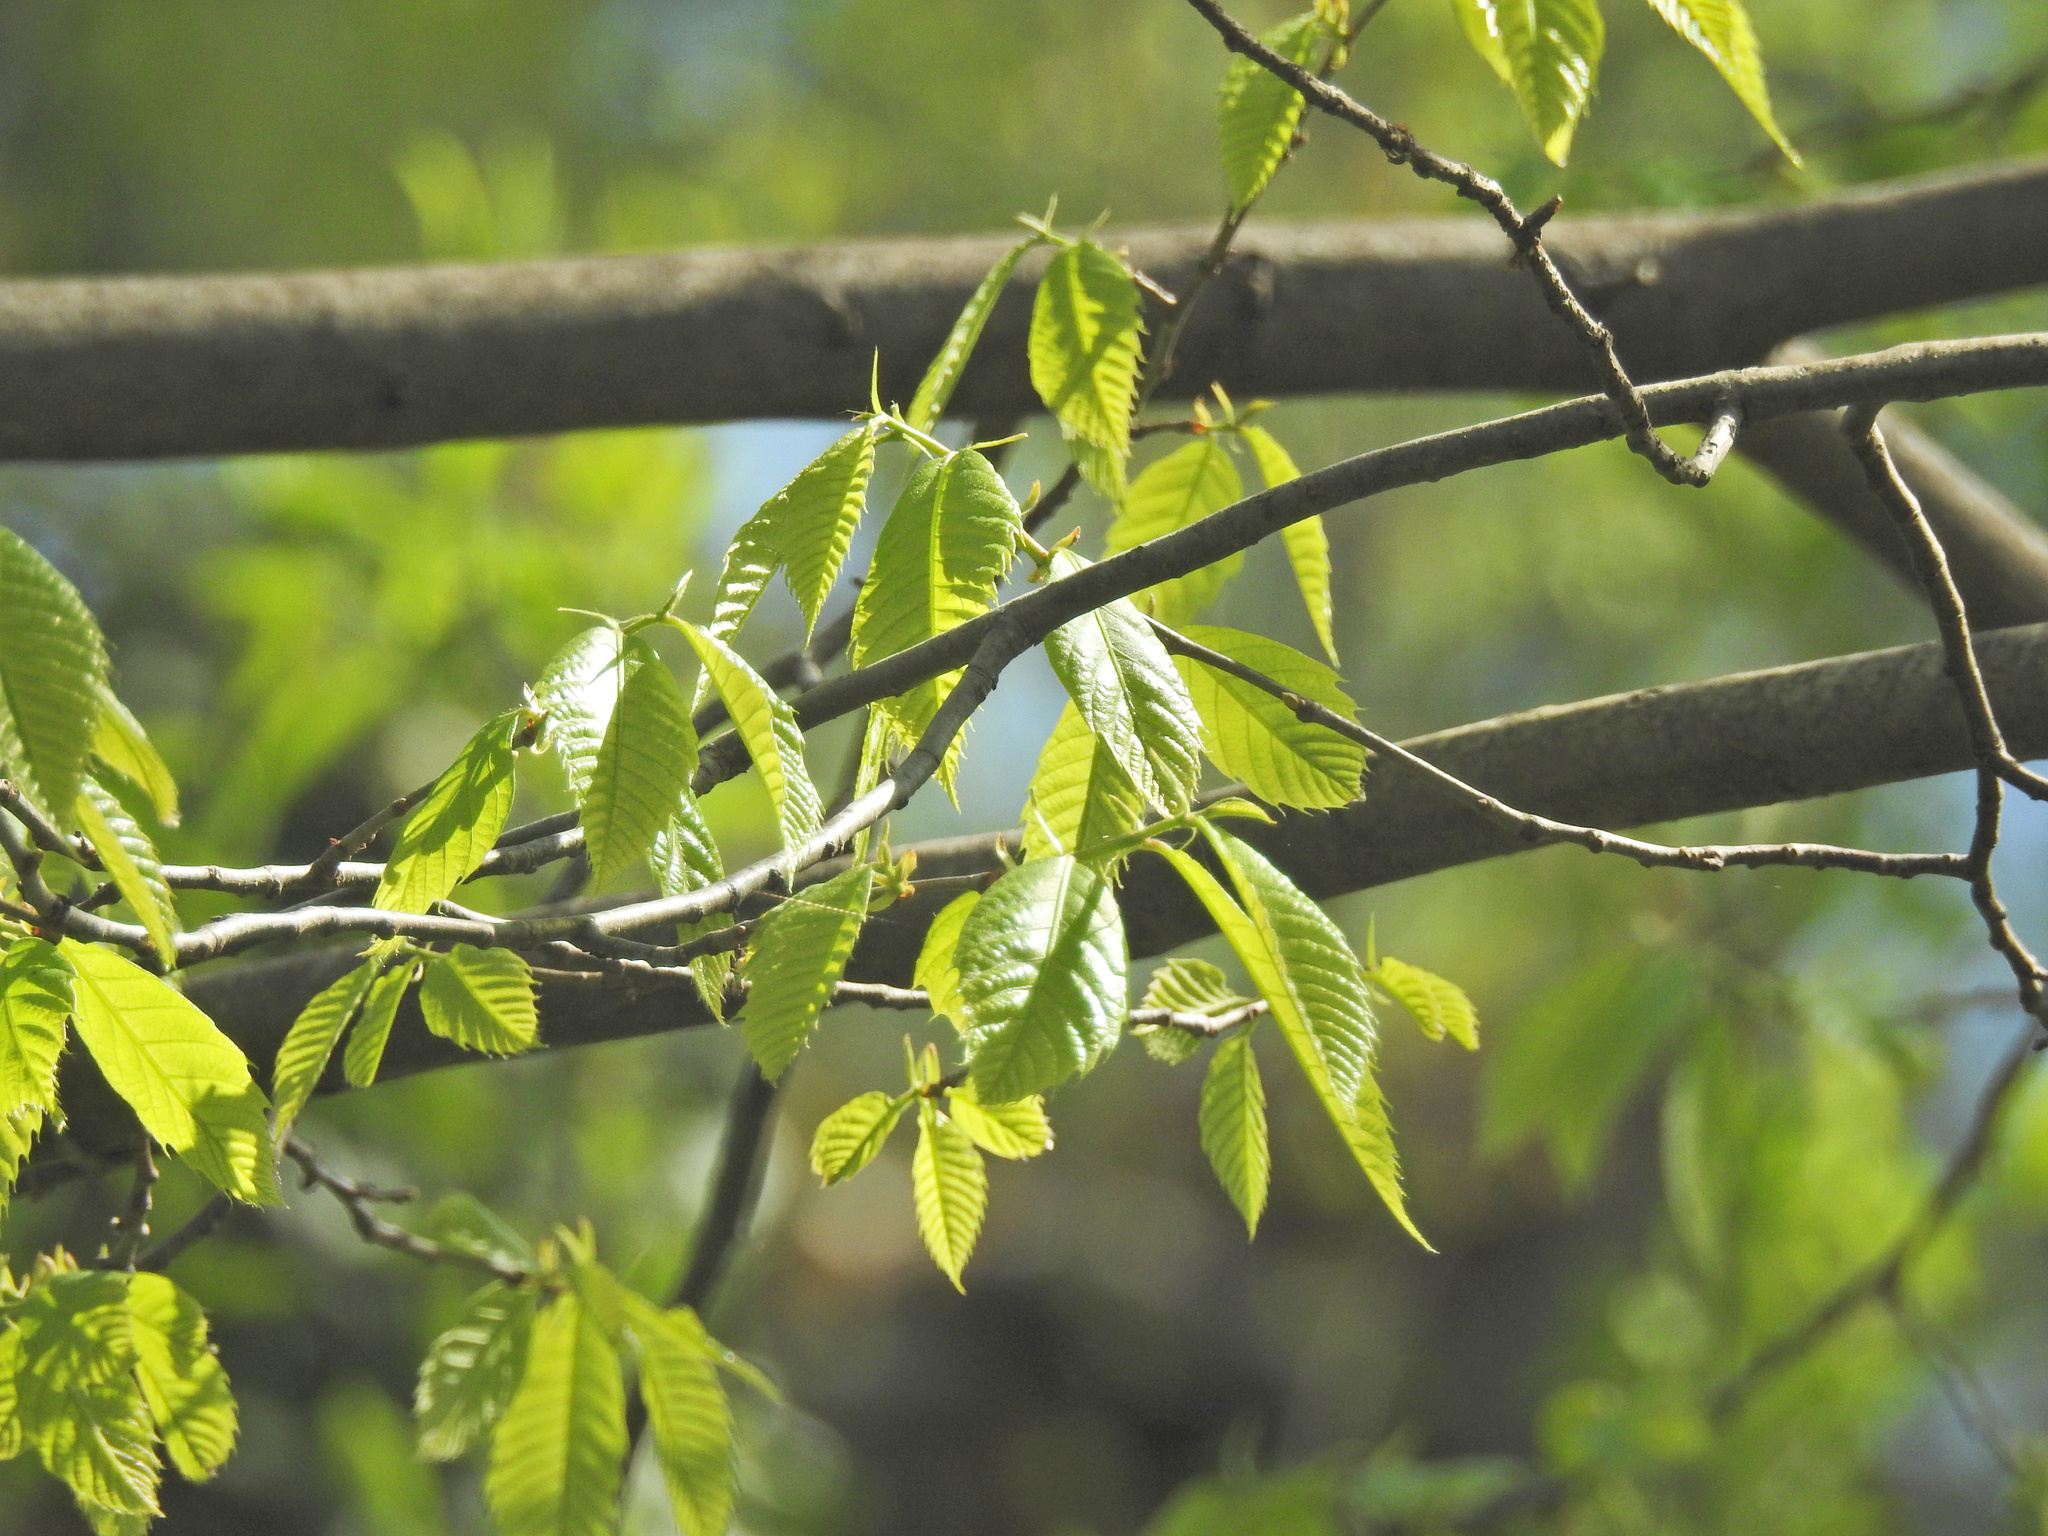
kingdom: Plantae
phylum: Tracheophyta
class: Magnoliopsida
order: Fagales
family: Fagaceae
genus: Castanea
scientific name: Castanea dentata
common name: American chestnut
